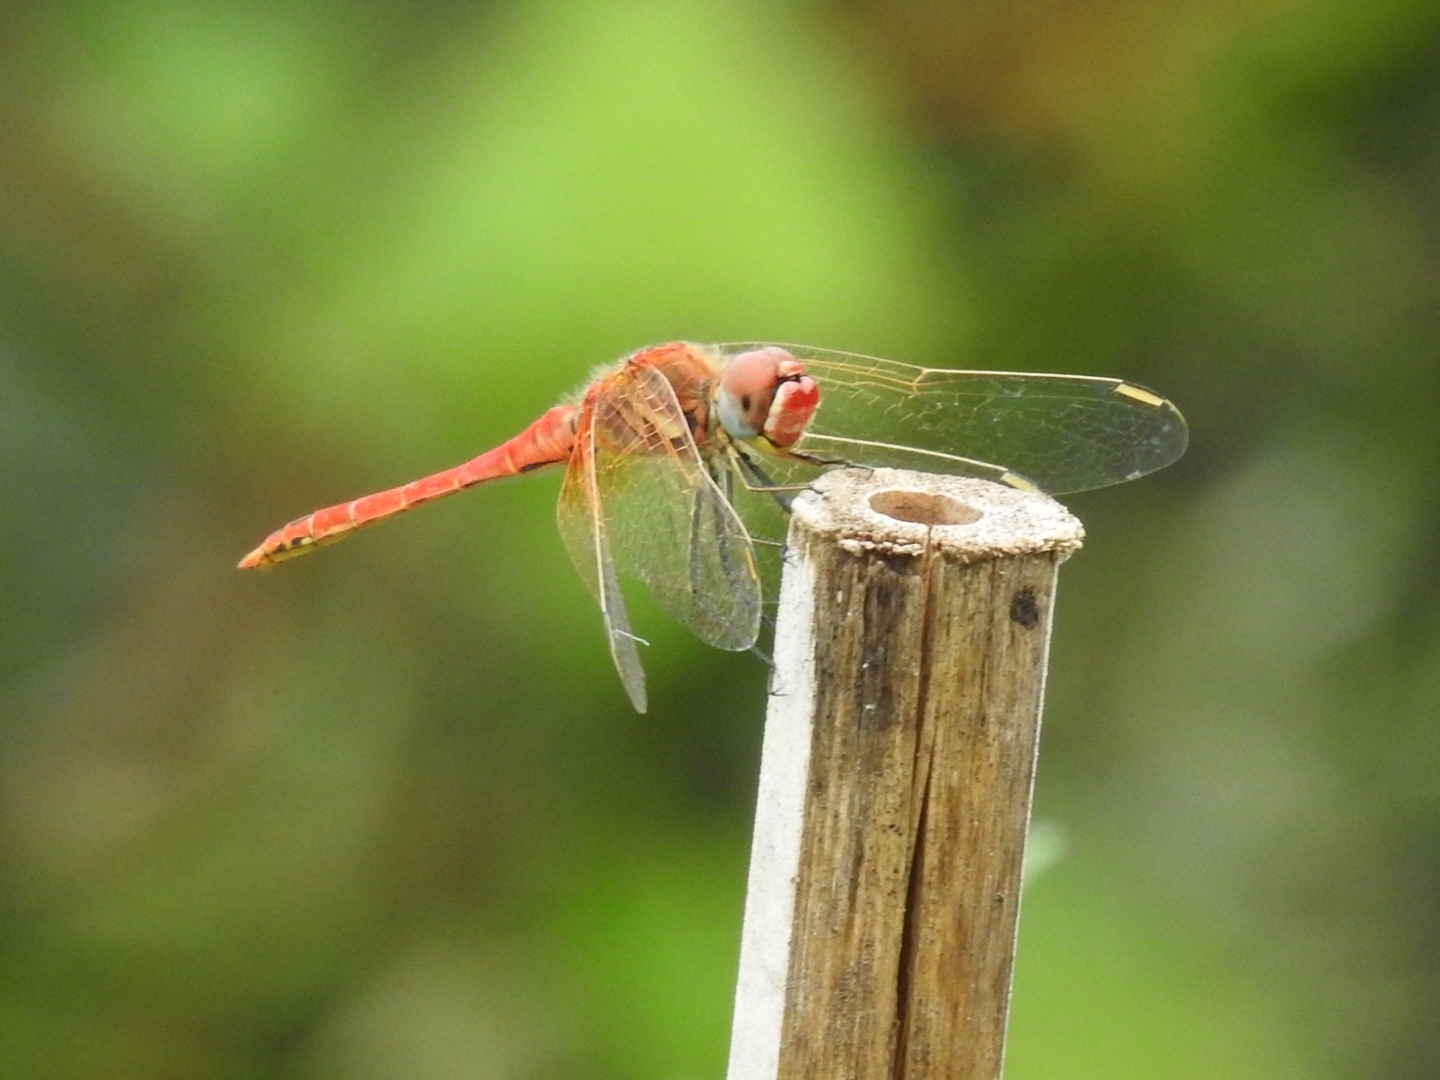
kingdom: Animalia
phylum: Arthropoda
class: Insecta
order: Odonata
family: Libellulidae
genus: Sympetrum
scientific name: Sympetrum fonscolombii
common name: Red-veined darter
